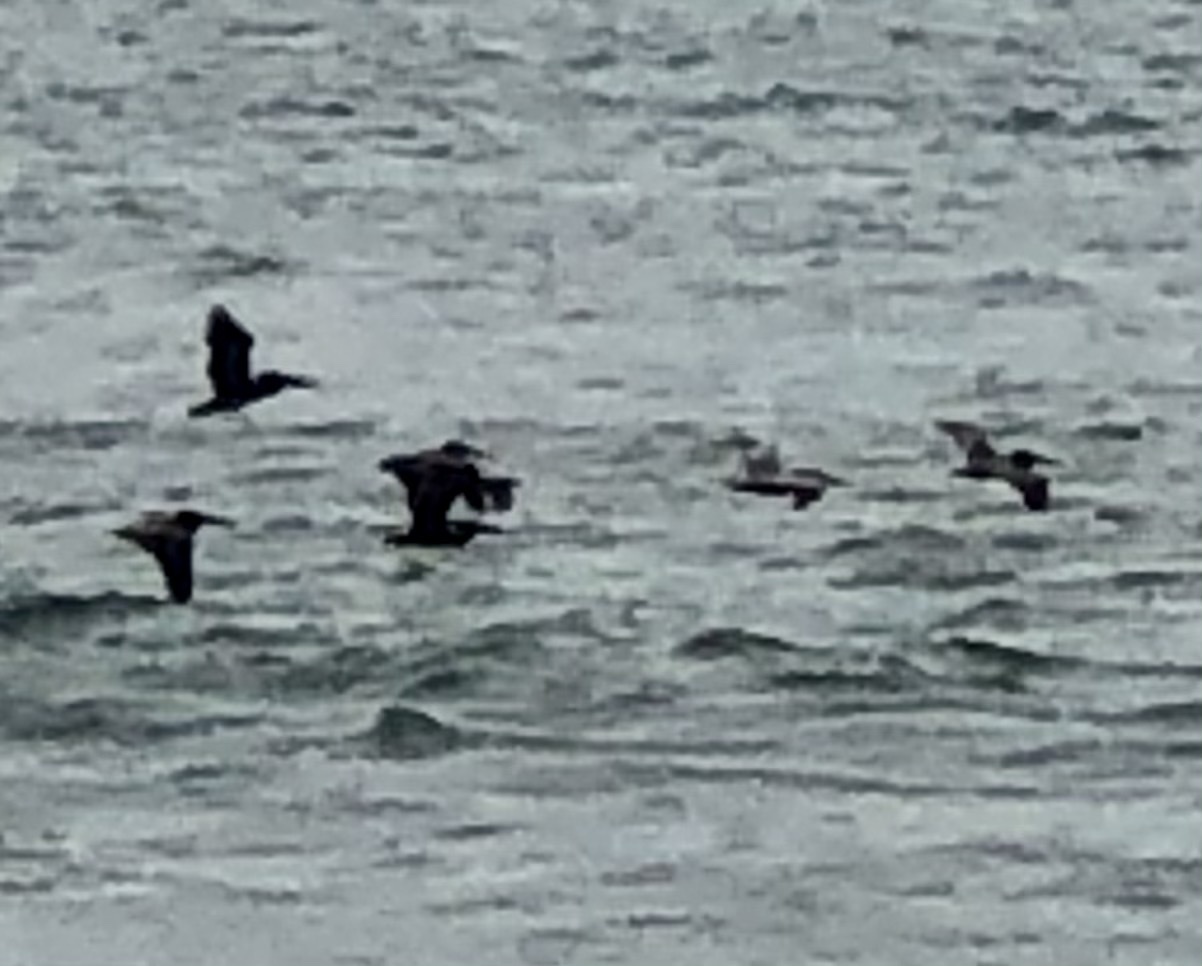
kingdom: Animalia
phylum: Chordata
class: Aves
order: Pelecaniformes
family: Pelecanidae
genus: Pelecanus
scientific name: Pelecanus occidentalis
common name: Brown pelican
